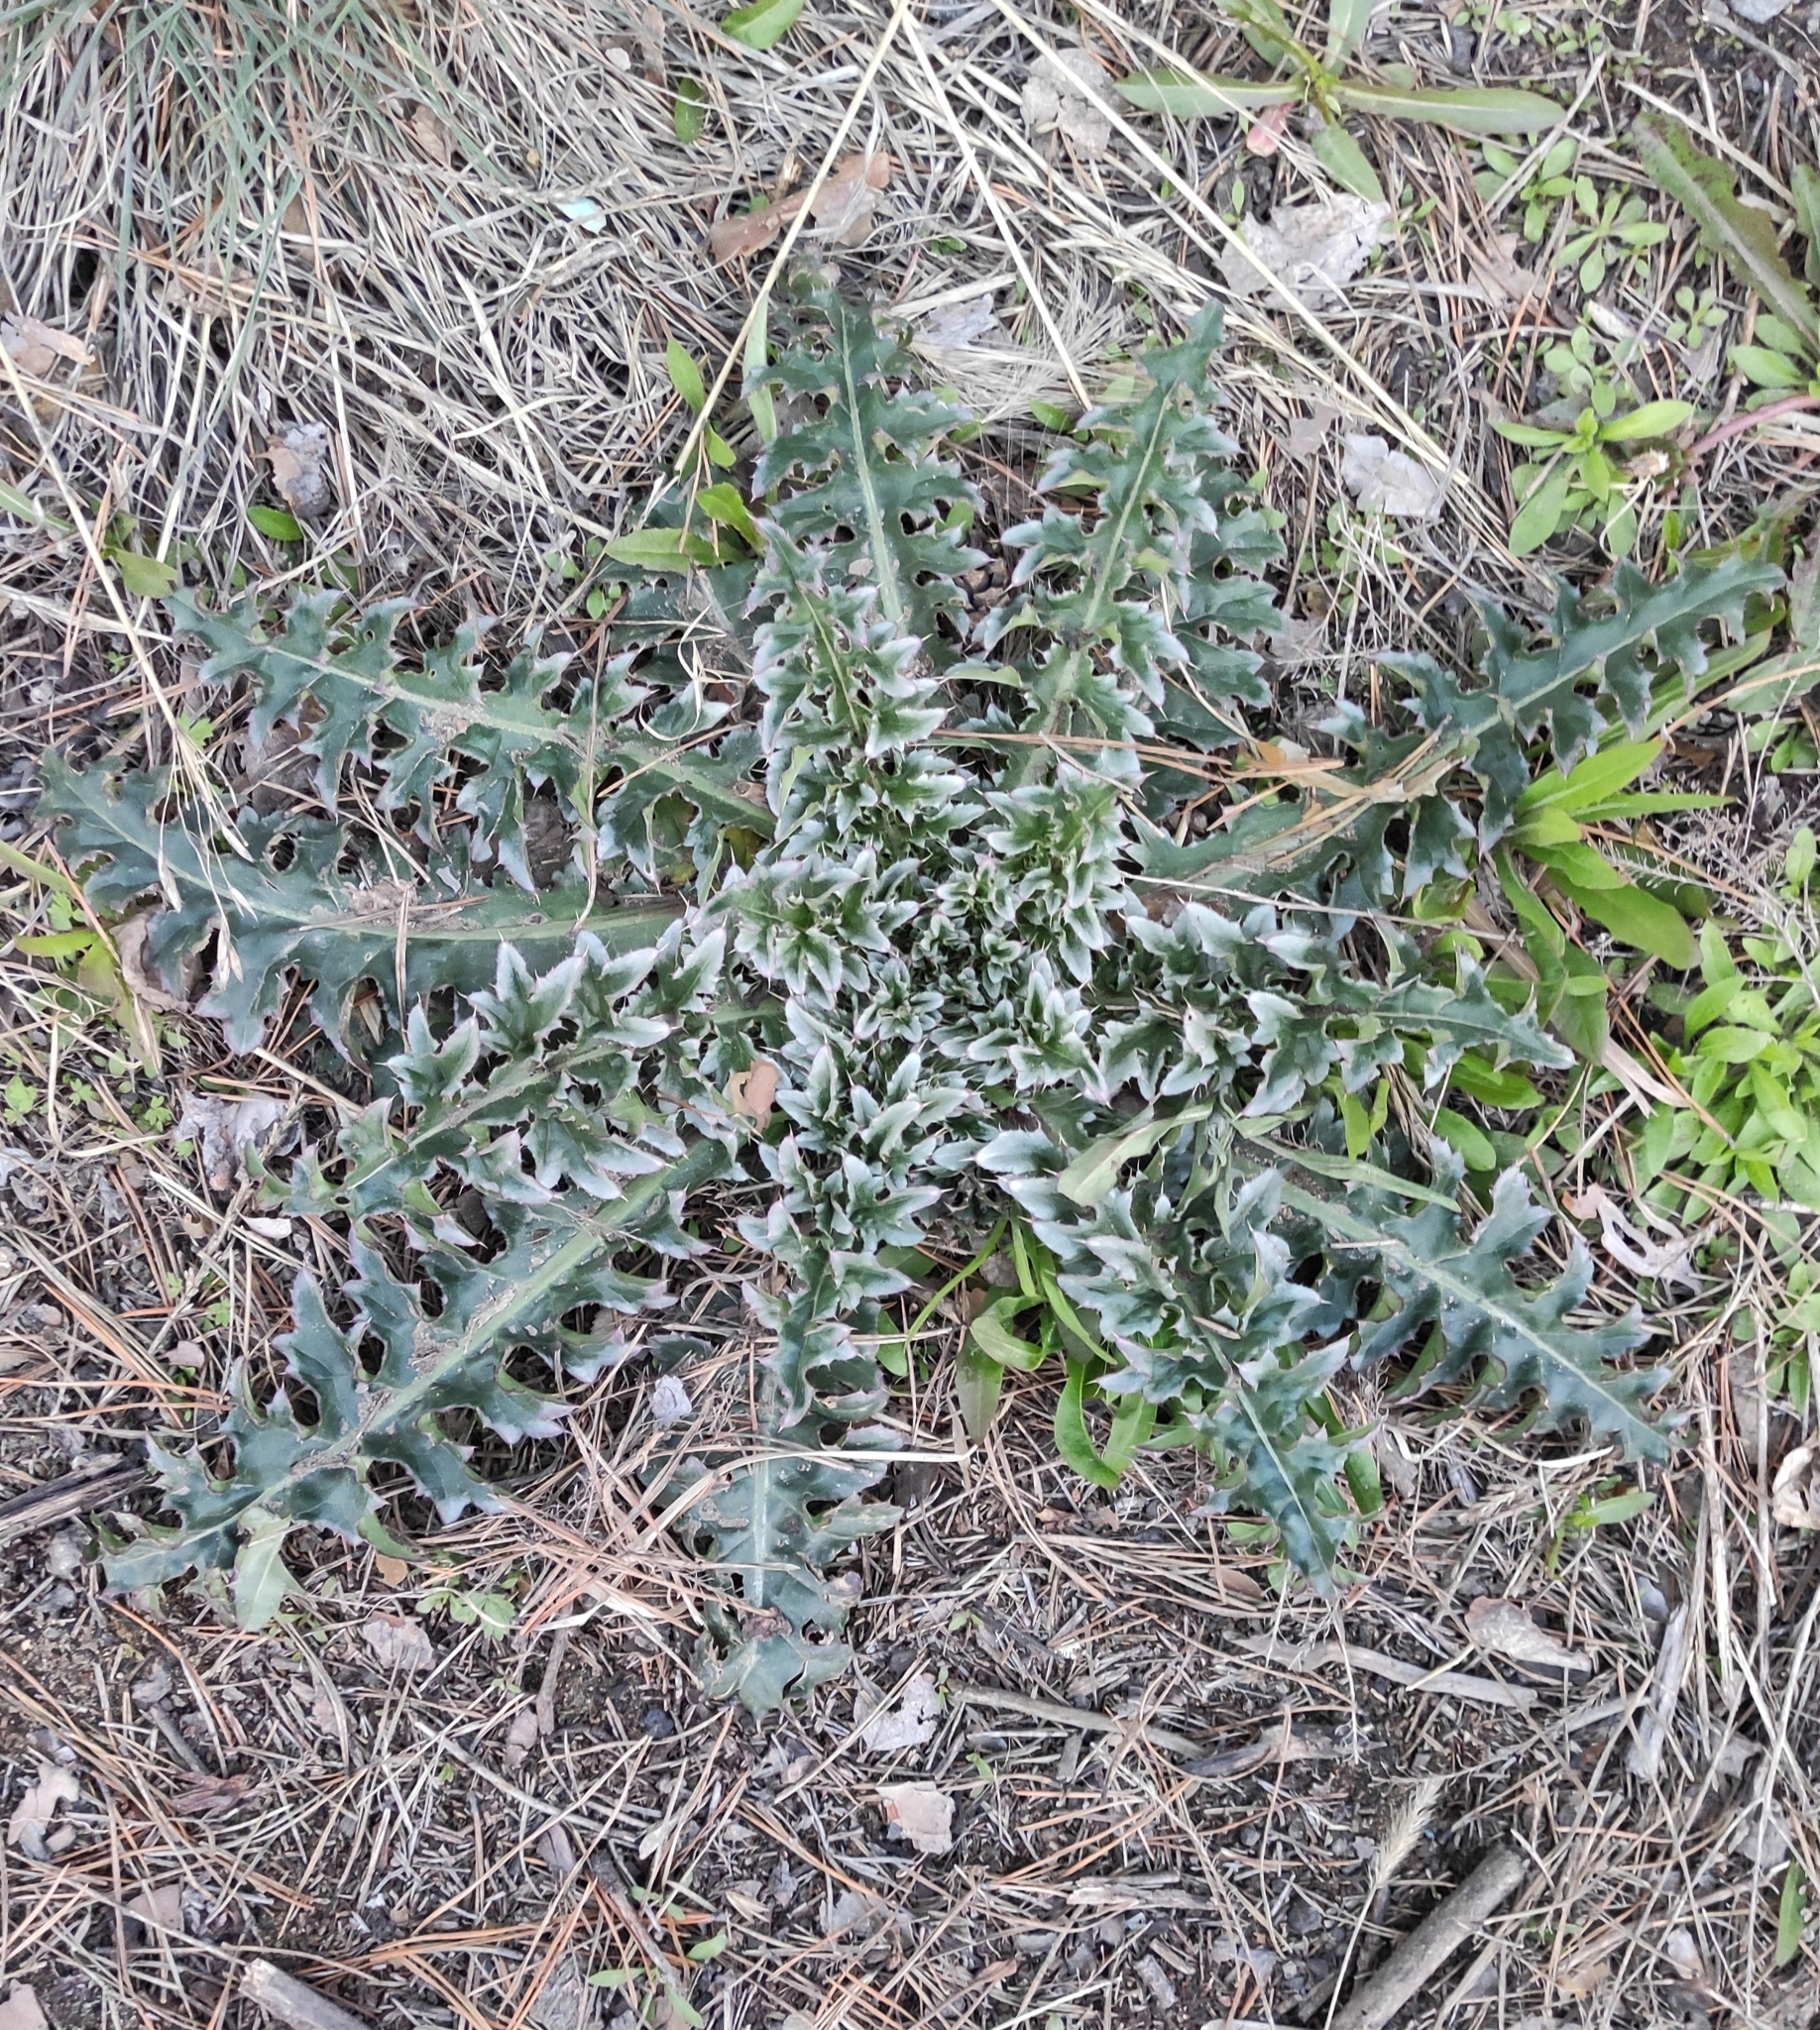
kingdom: Plantae
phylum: Tracheophyta
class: Magnoliopsida
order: Asterales
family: Asteraceae
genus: Carduus
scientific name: Carduus nutans
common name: Musk thistle
